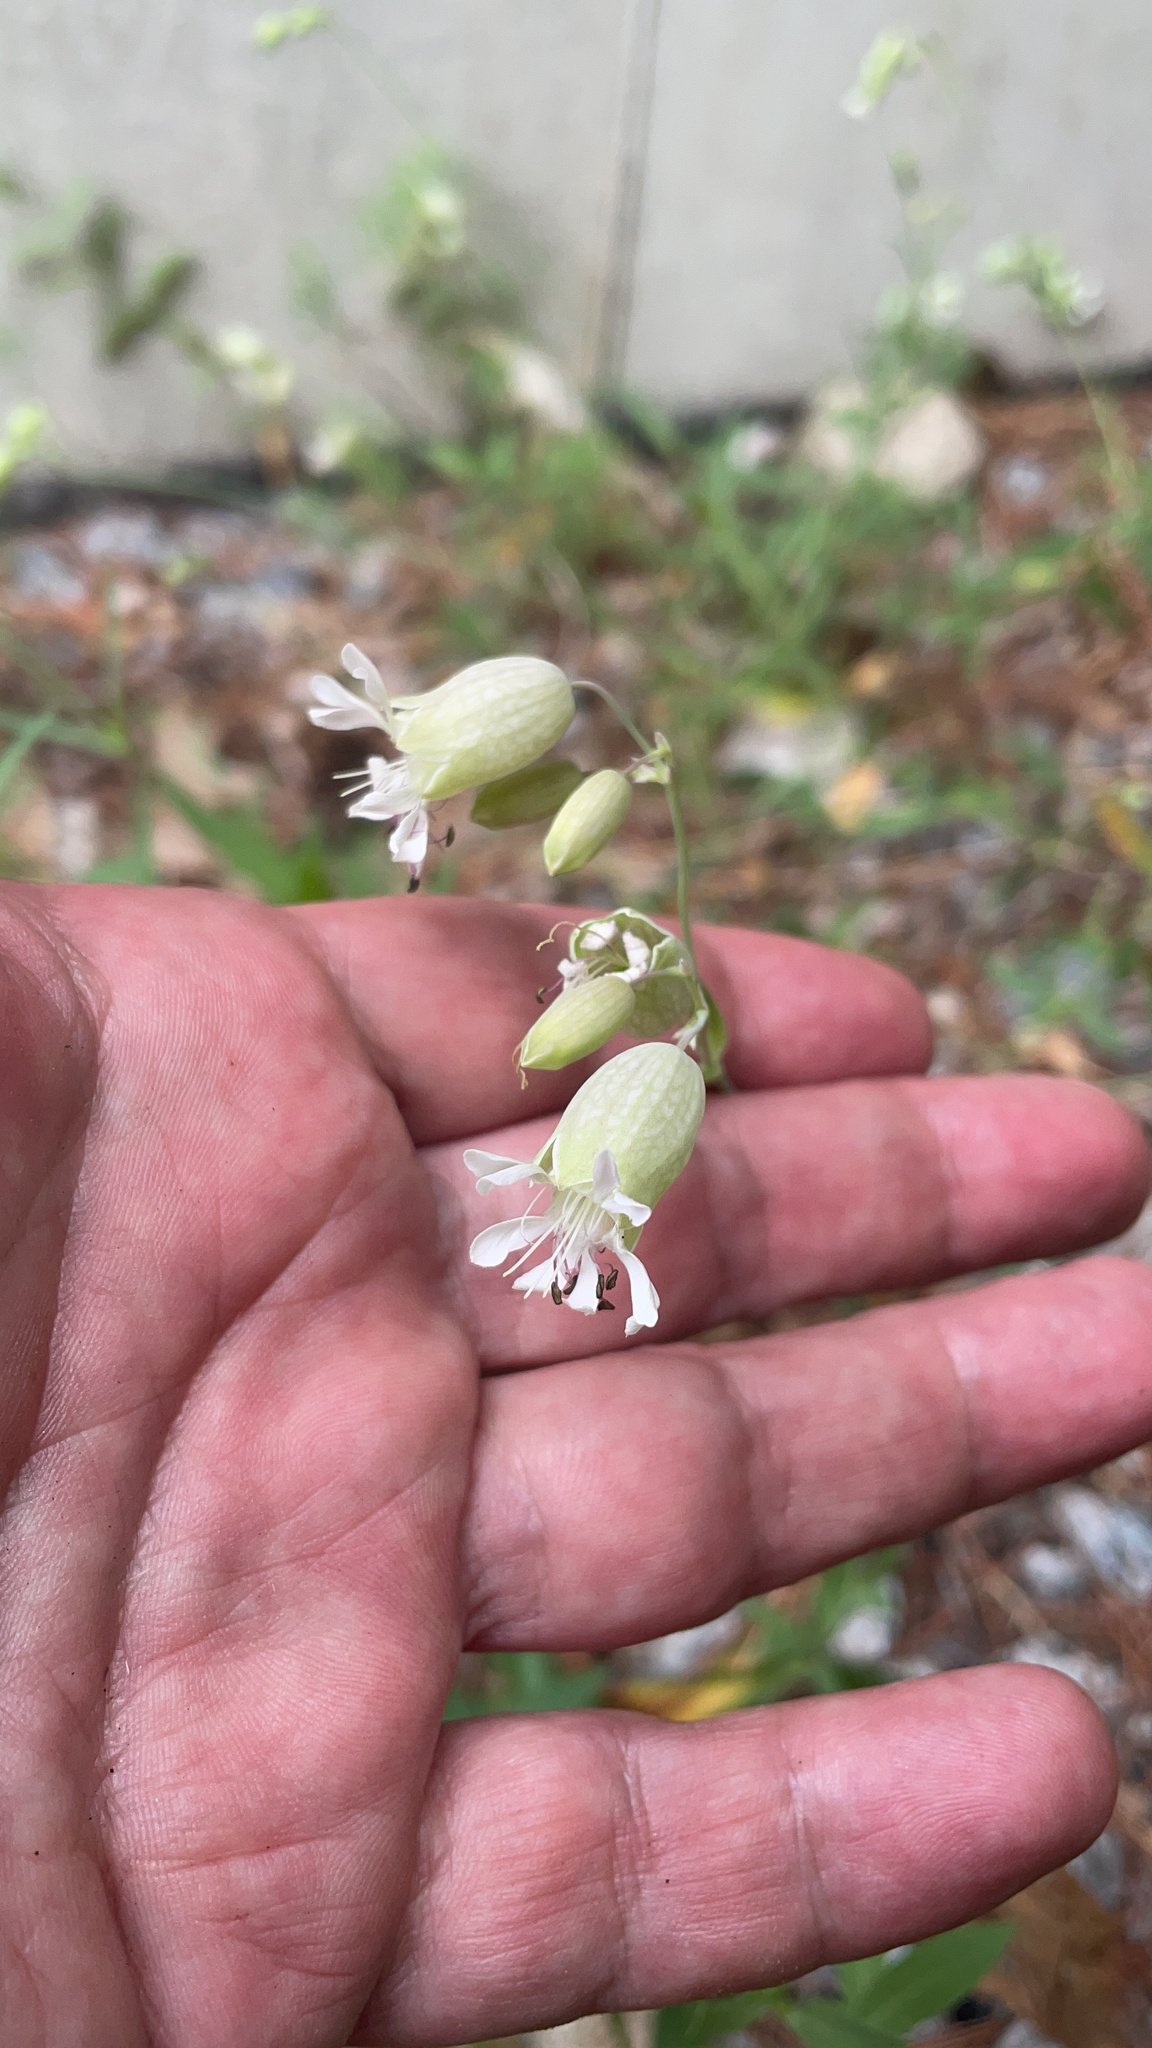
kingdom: Plantae
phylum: Tracheophyta
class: Magnoliopsida
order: Caryophyllales
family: Caryophyllaceae
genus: Silene
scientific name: Silene vulgaris
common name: Bladder campion
